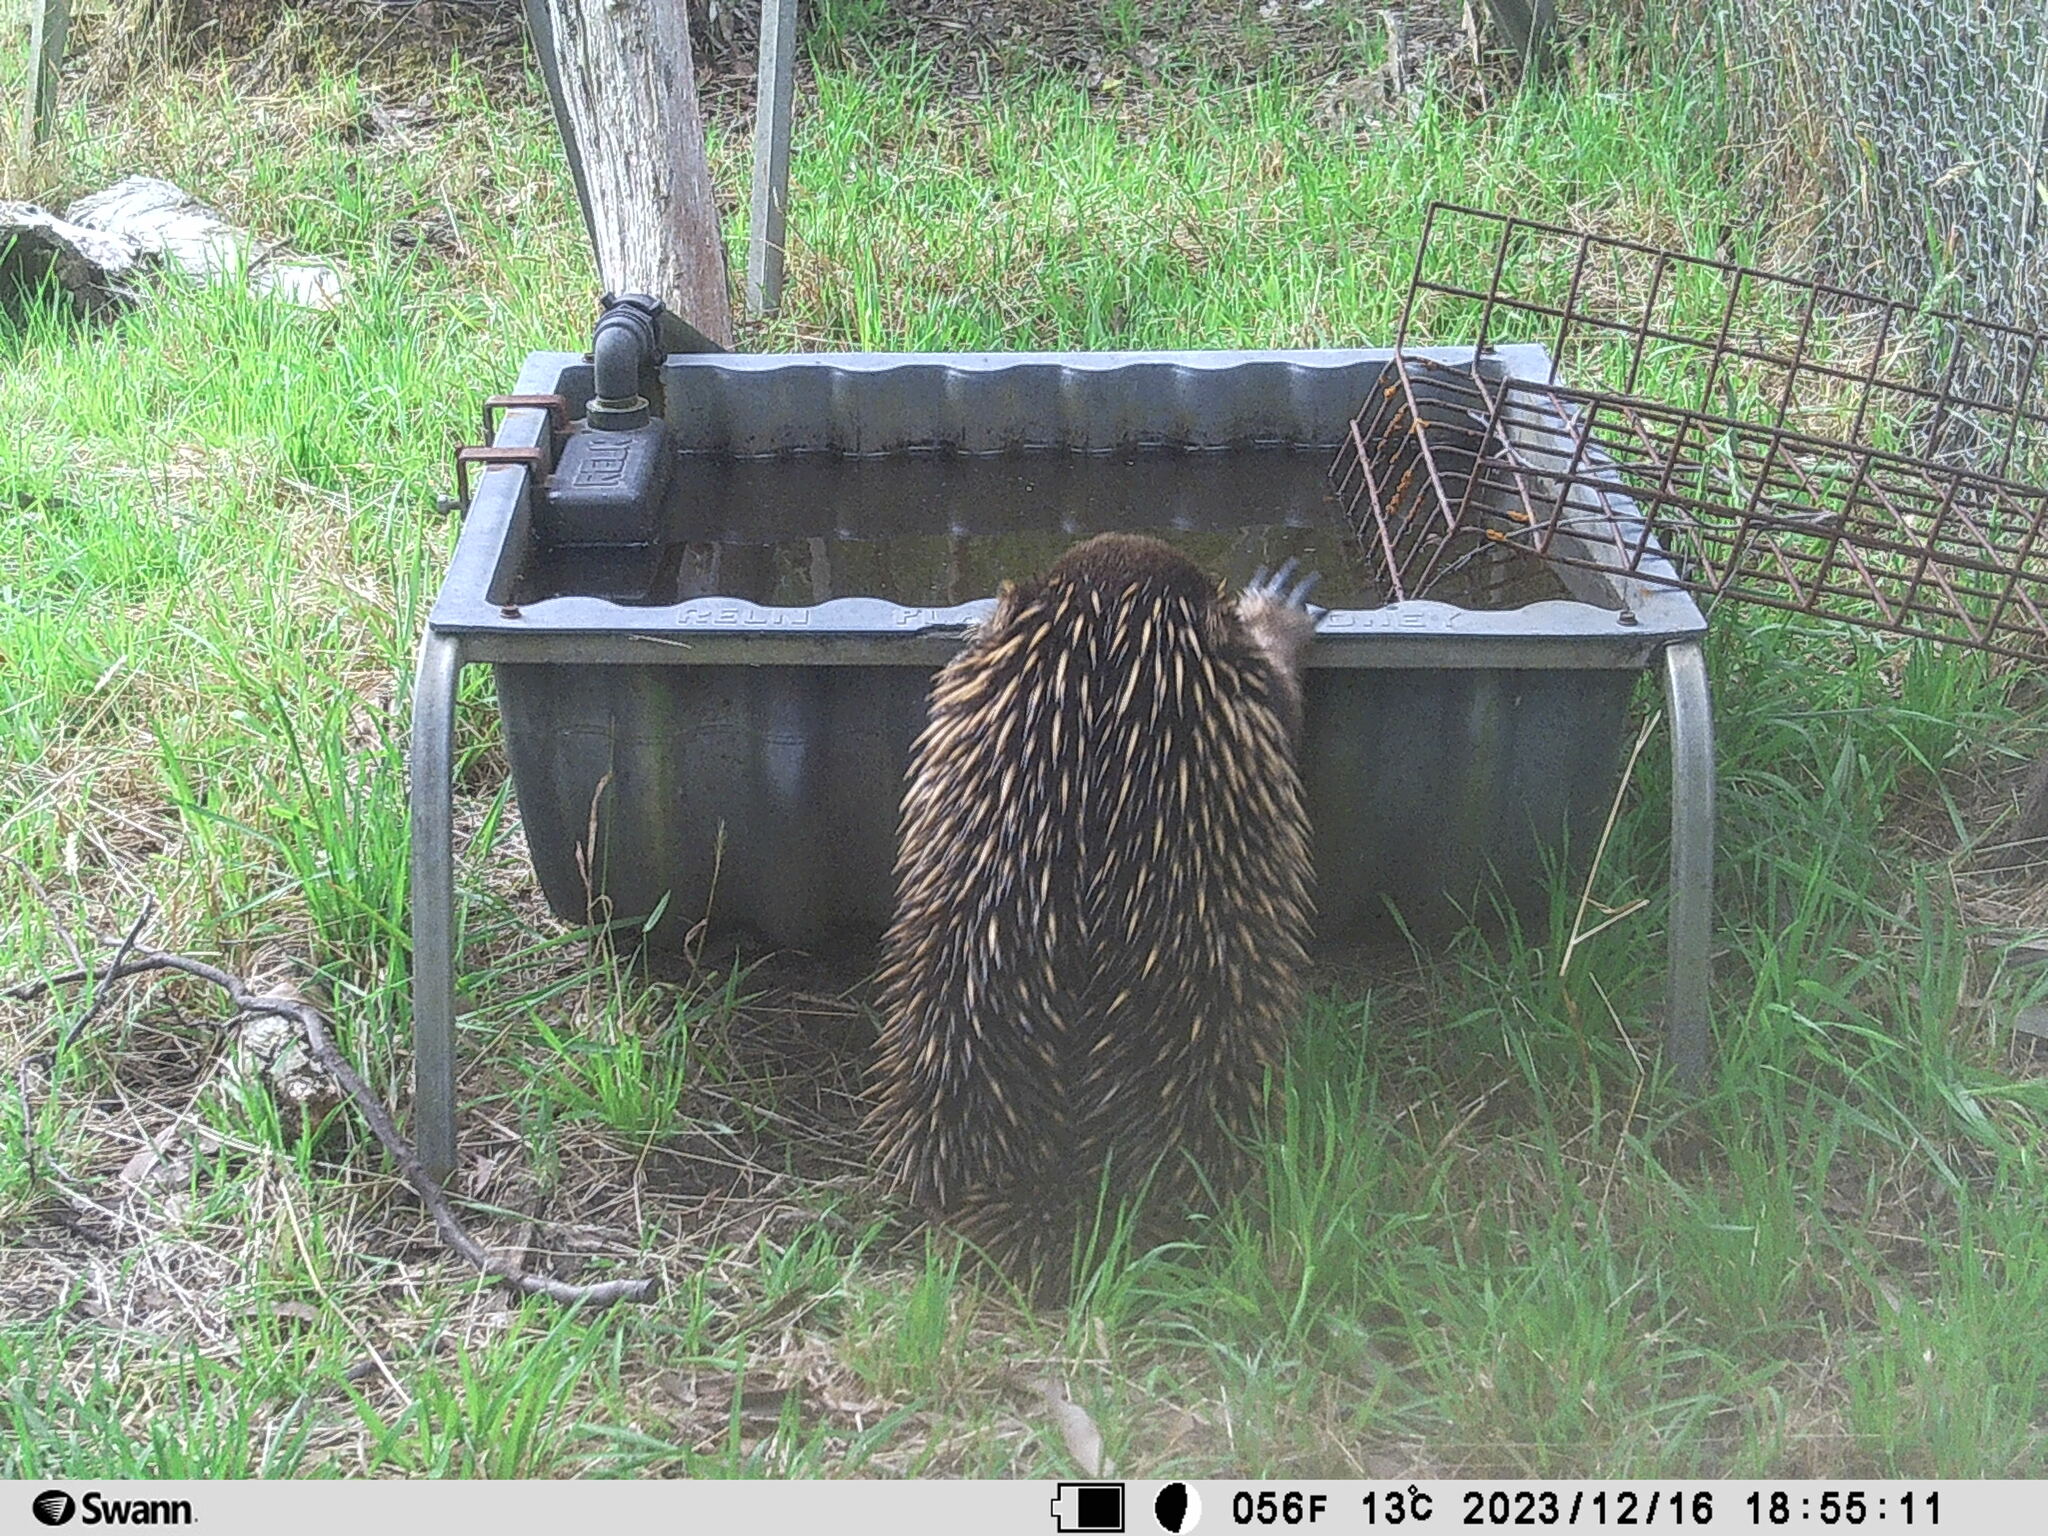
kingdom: Animalia
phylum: Chordata
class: Mammalia
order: Monotremata
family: Tachyglossidae
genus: Tachyglossus
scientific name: Tachyglossus aculeatus
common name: Short-beaked echidna
